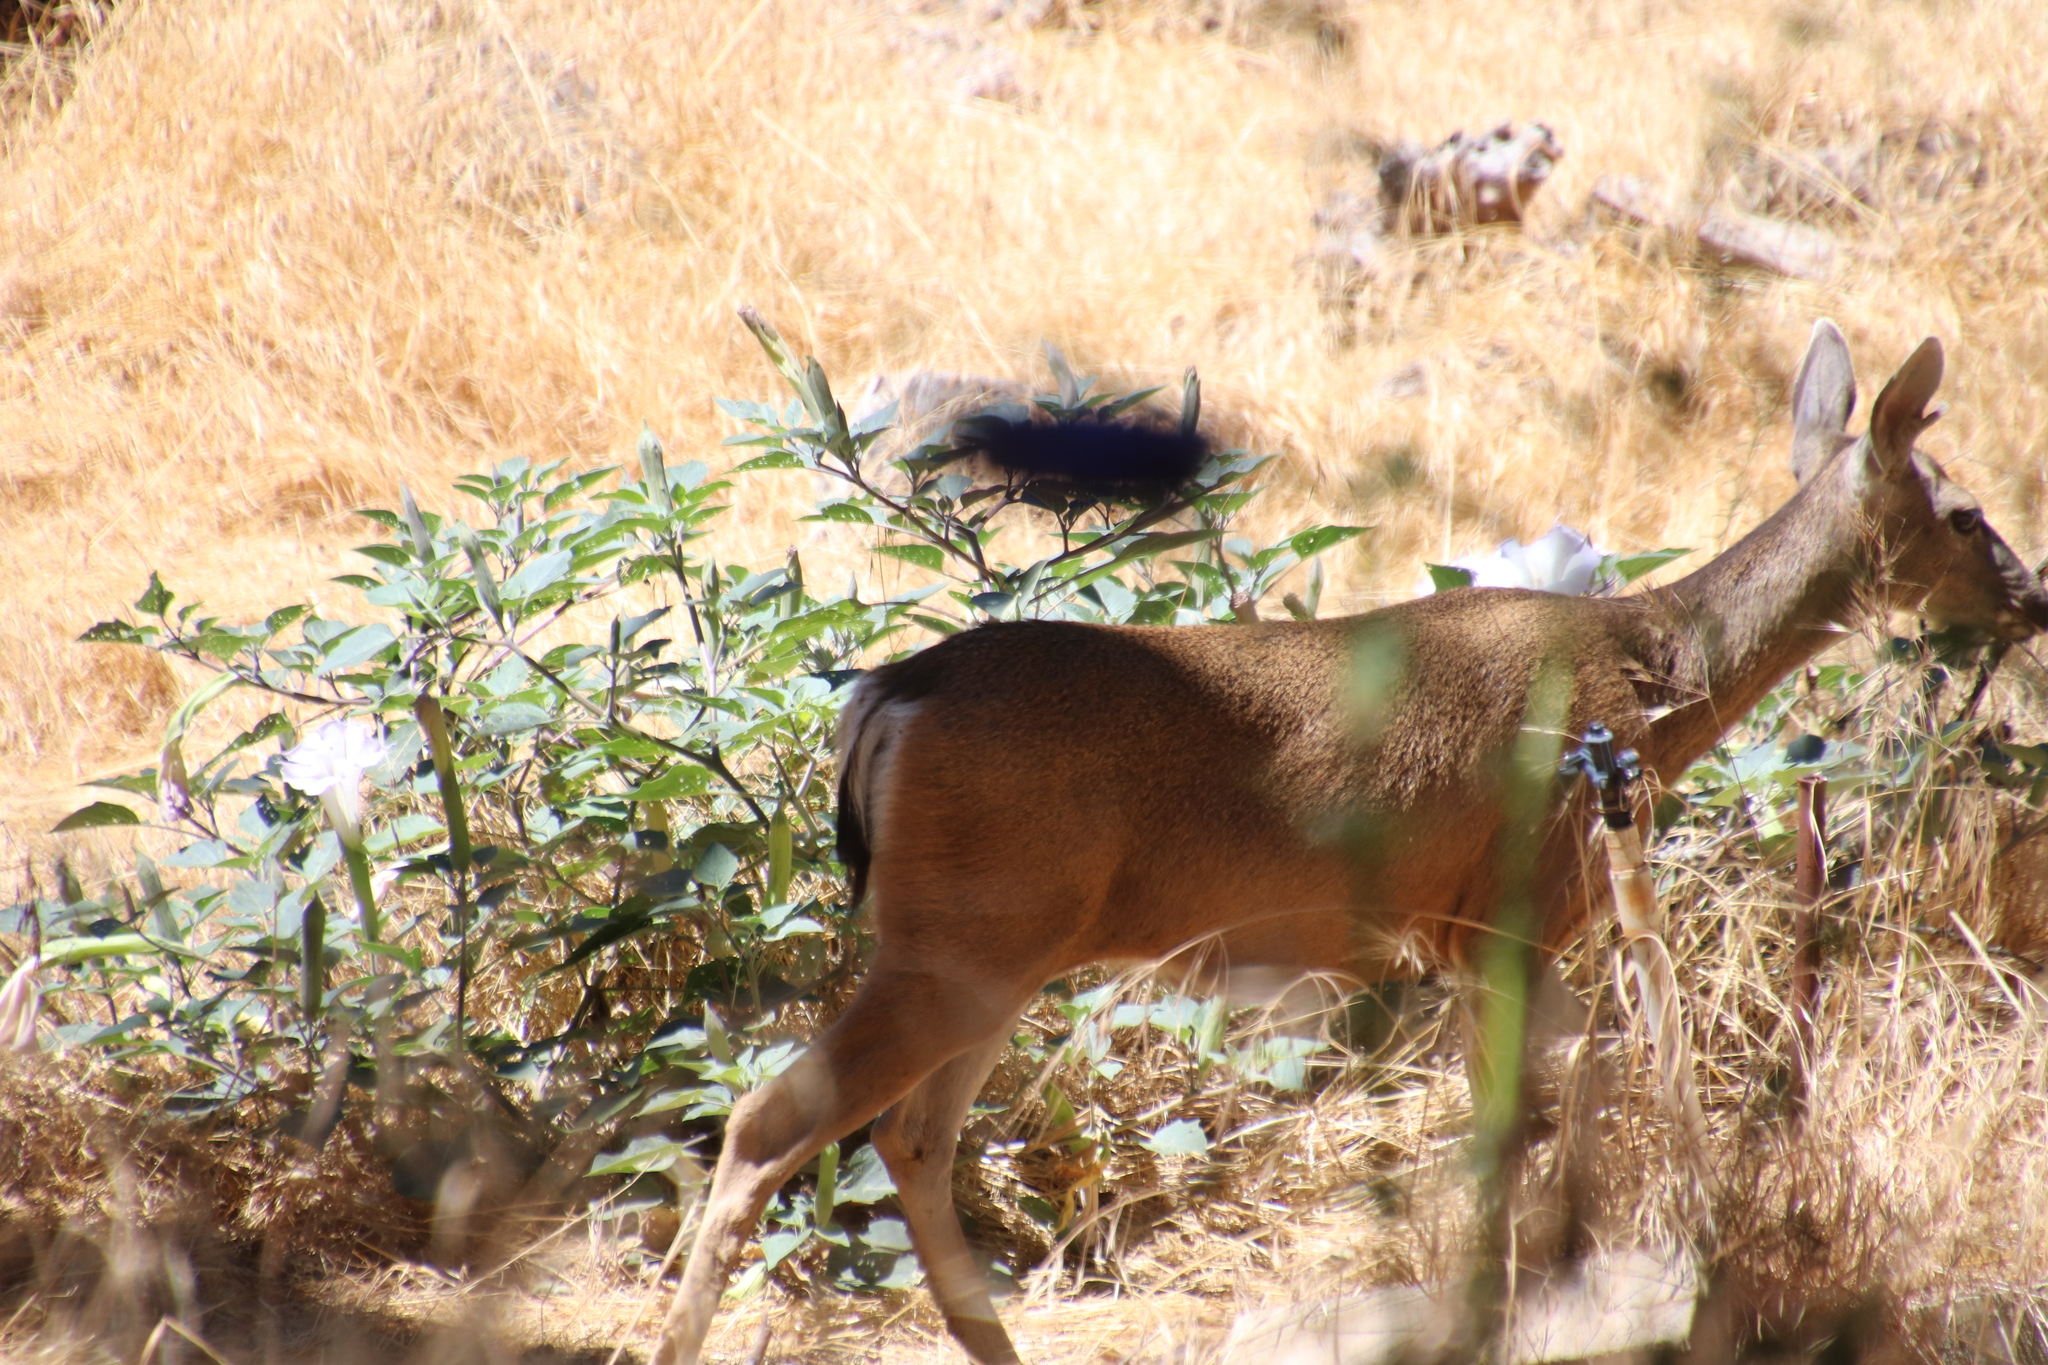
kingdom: Animalia
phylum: Chordata
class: Mammalia
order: Artiodactyla
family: Cervidae
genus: Odocoileus
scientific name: Odocoileus hemionus
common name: Mule deer
